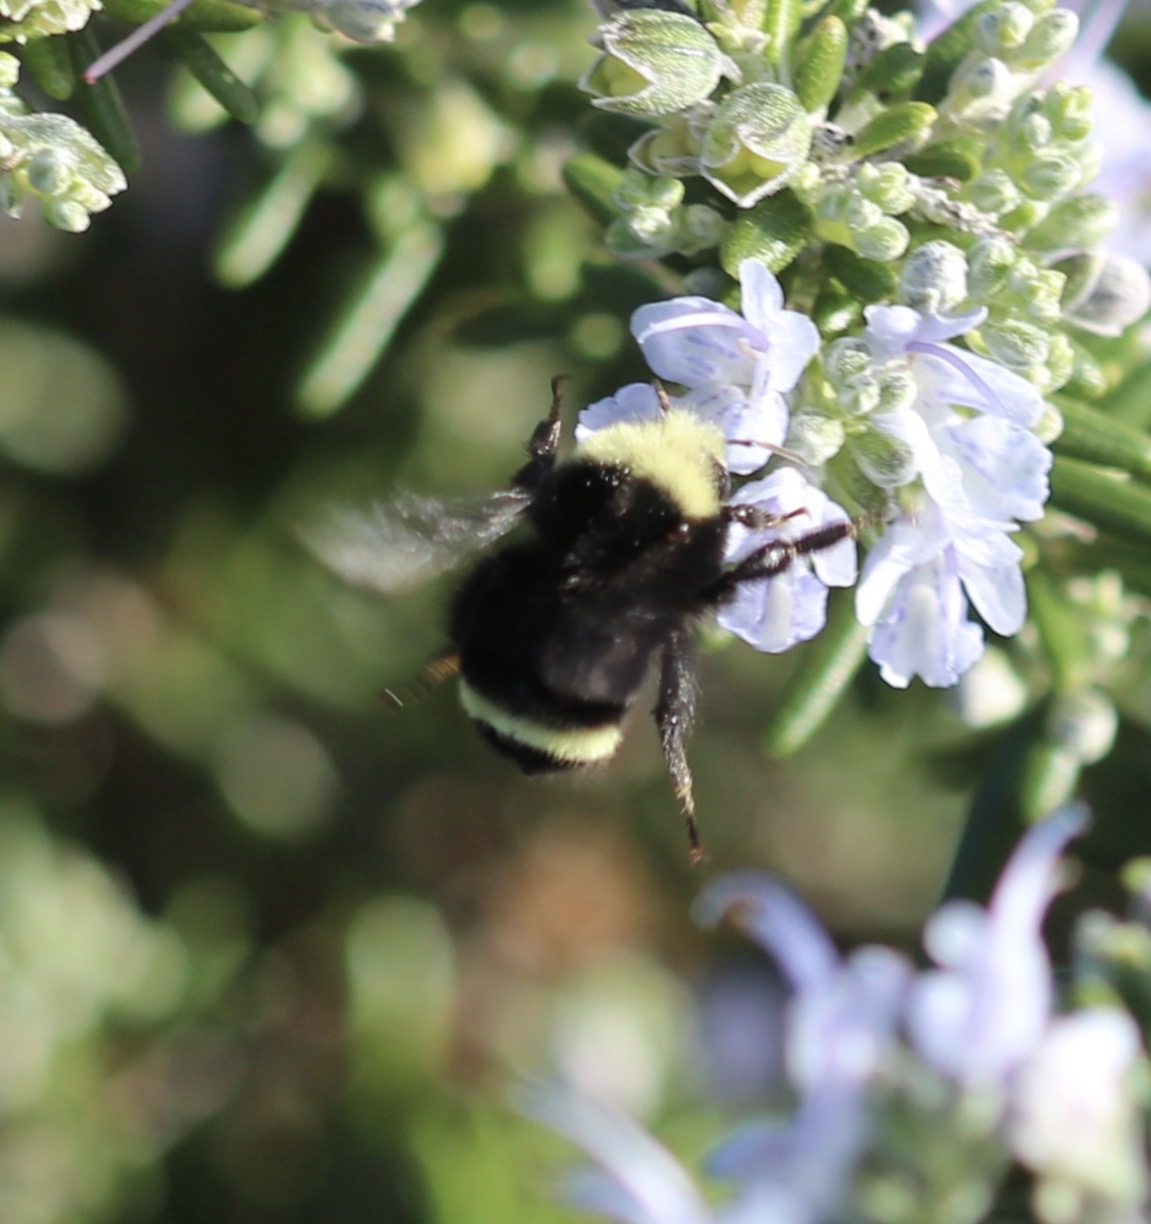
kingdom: Animalia
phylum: Arthropoda
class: Insecta
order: Hymenoptera
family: Apidae
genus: Bombus
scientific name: Bombus vosnesenskii
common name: Vosnesensky bumble bee
